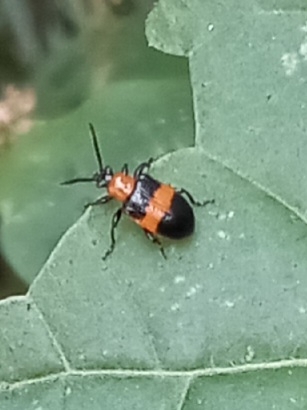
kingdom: Animalia
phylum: Arthropoda
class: Insecta
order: Coleoptera
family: Chrysomelidae
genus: Lema
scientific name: Lema solani
